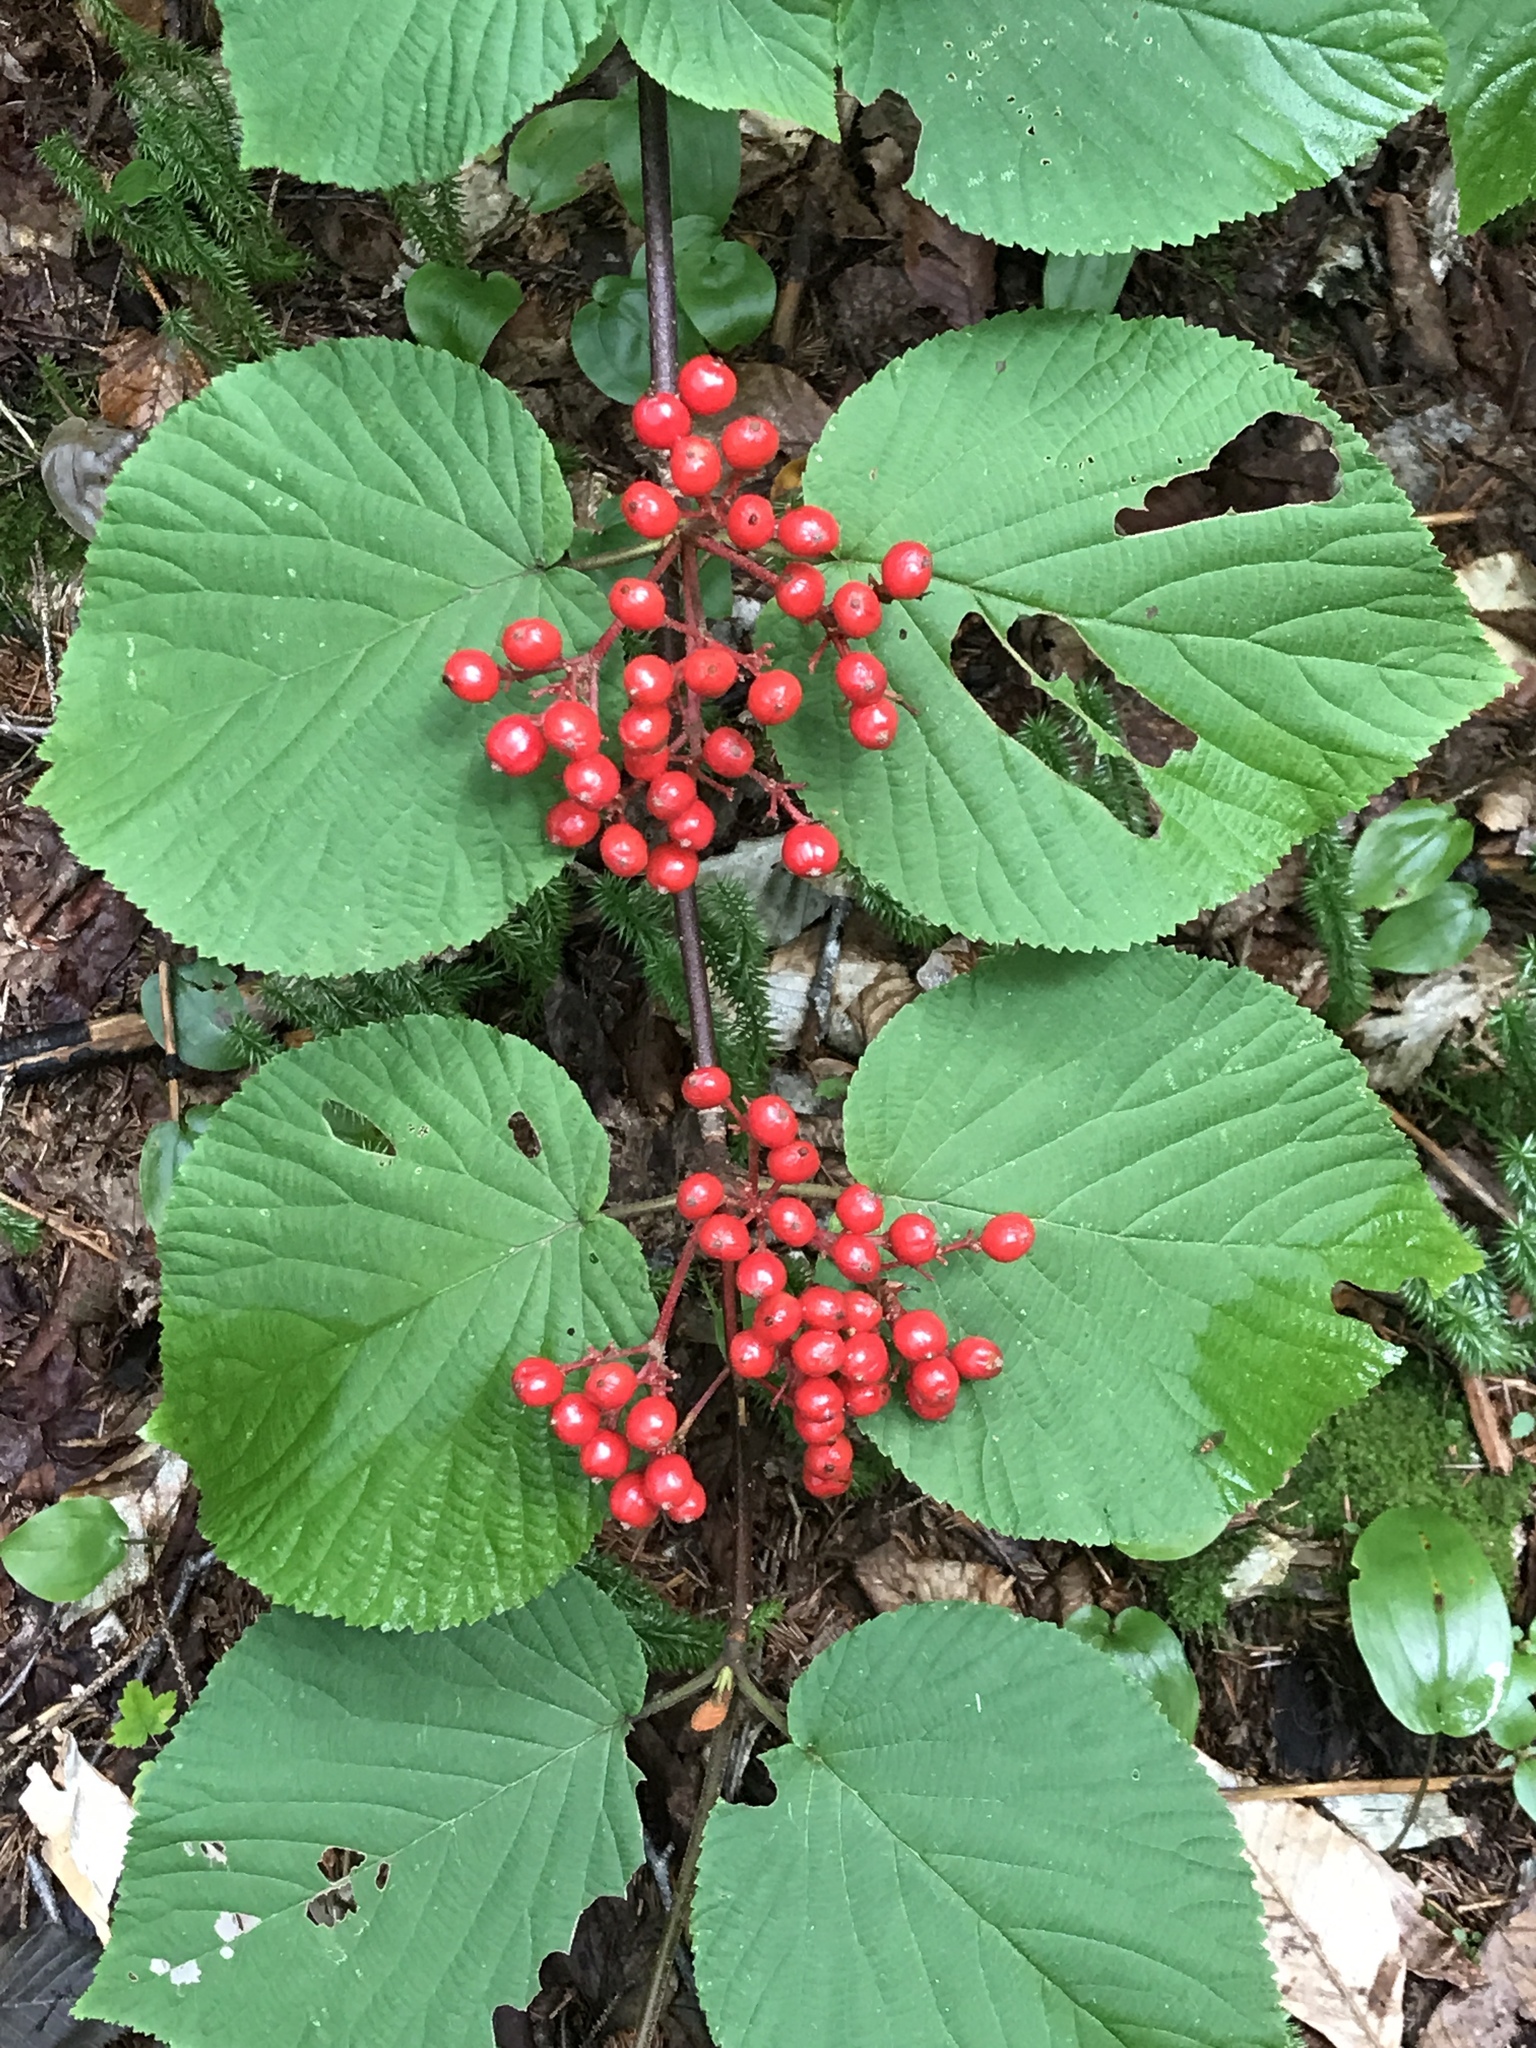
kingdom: Plantae
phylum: Tracheophyta
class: Magnoliopsida
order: Dipsacales
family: Viburnaceae
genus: Viburnum
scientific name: Viburnum lantanoides
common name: Hobblebush
